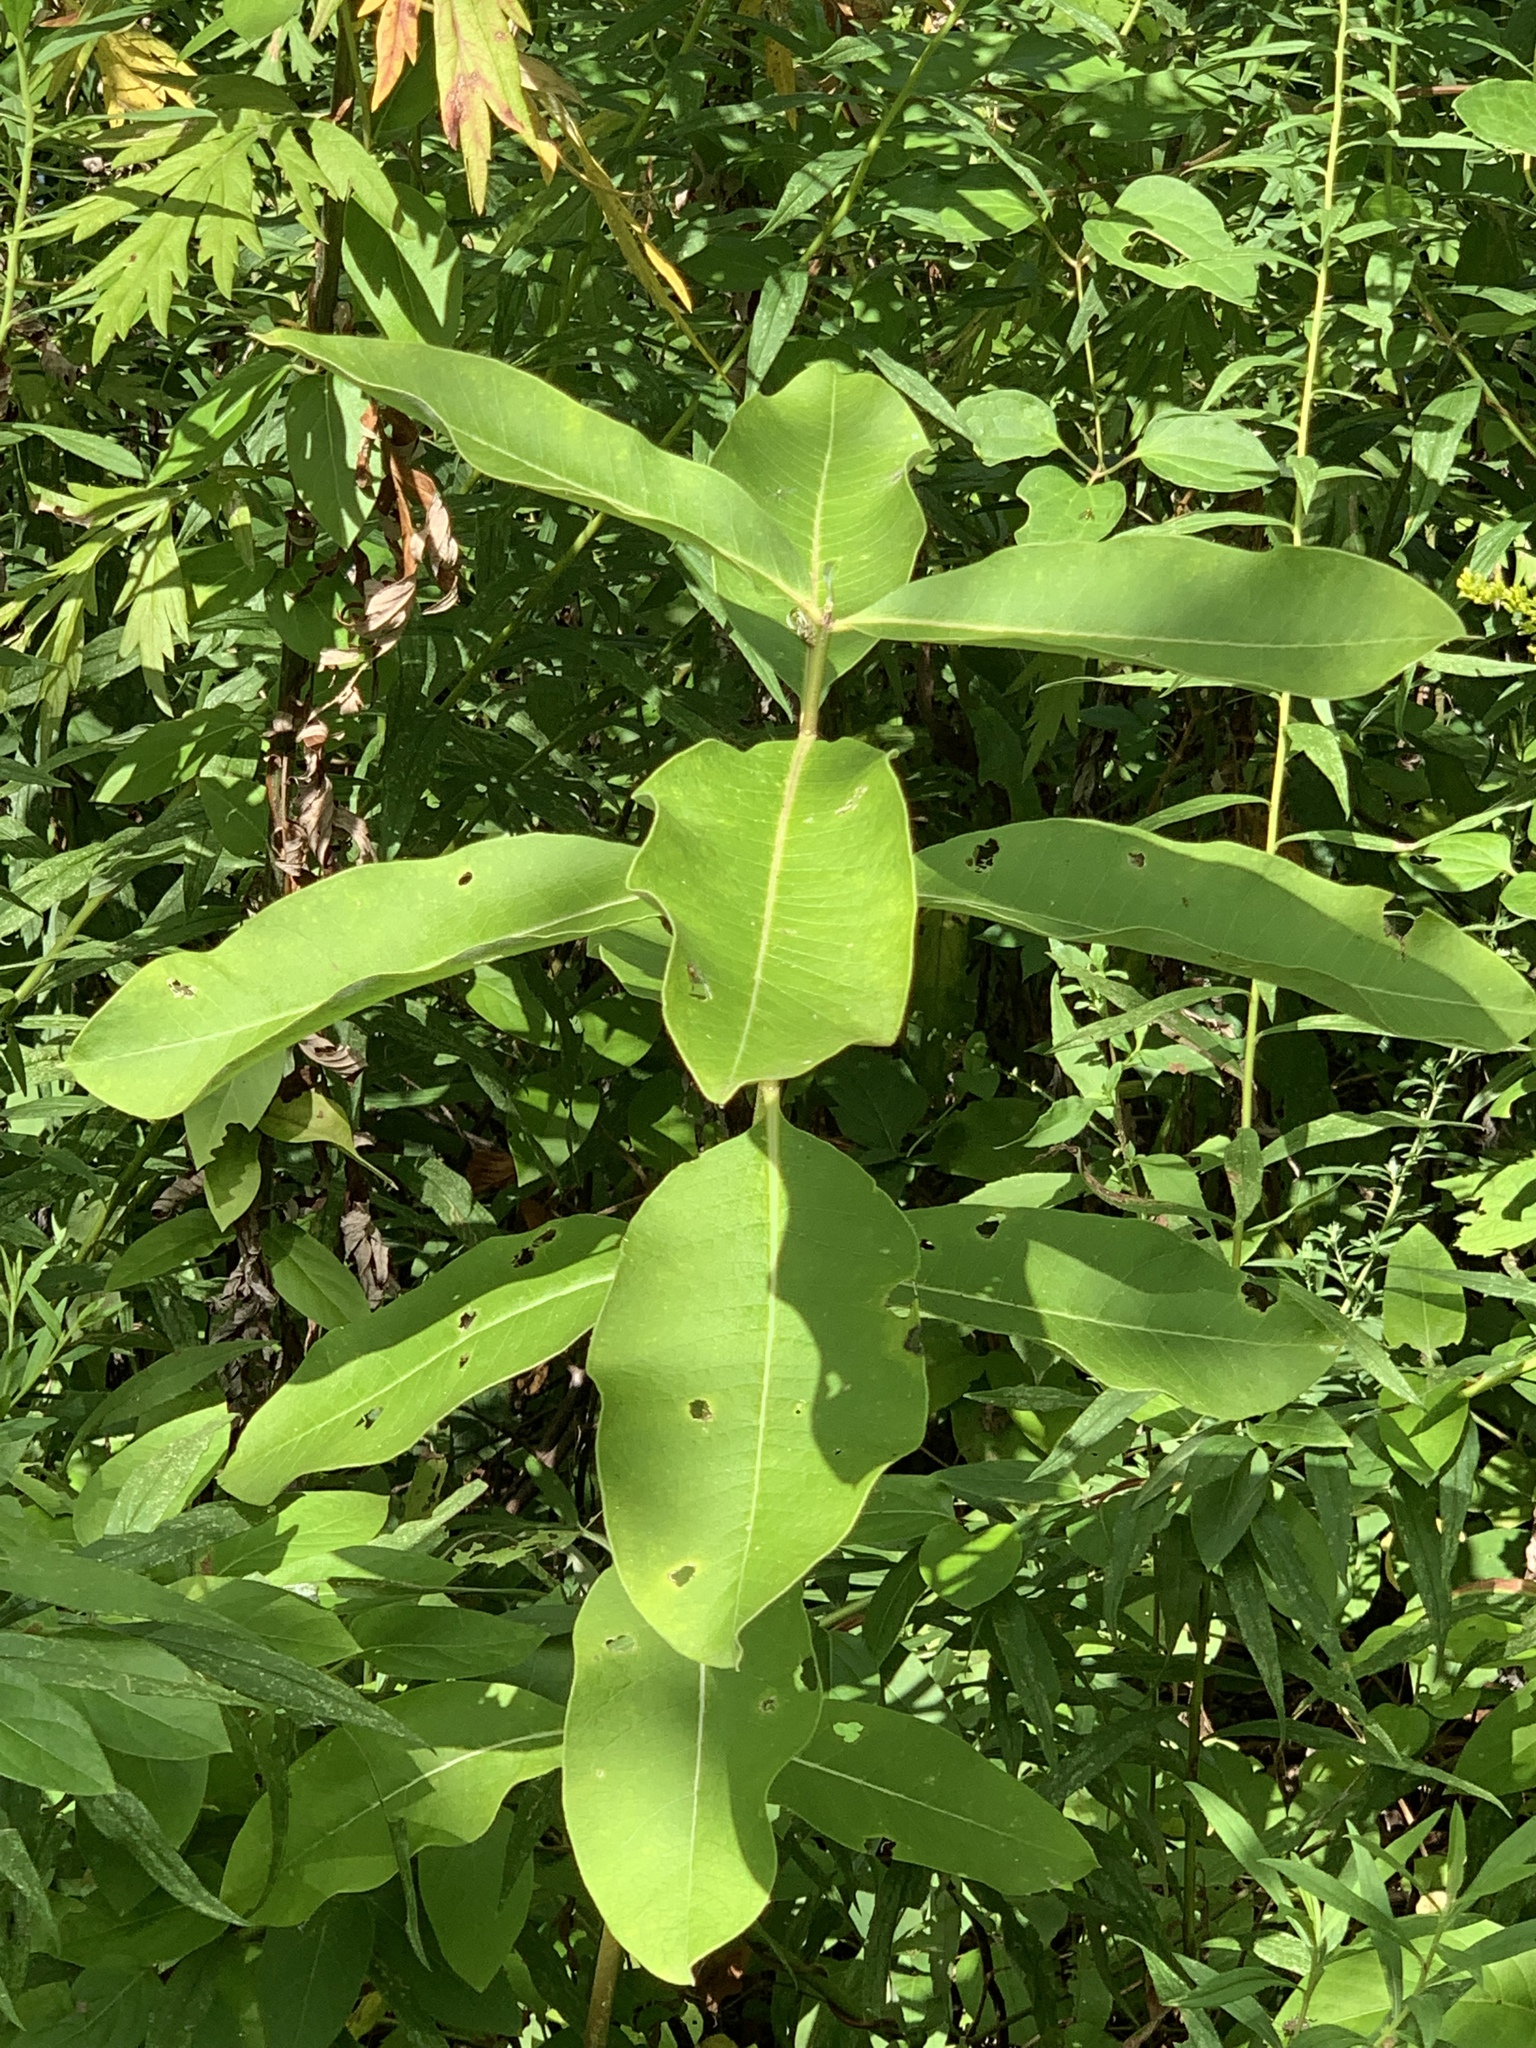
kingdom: Plantae
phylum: Tracheophyta
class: Magnoliopsida
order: Gentianales
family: Apocynaceae
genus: Asclepias
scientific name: Asclepias syriaca
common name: Common milkweed
